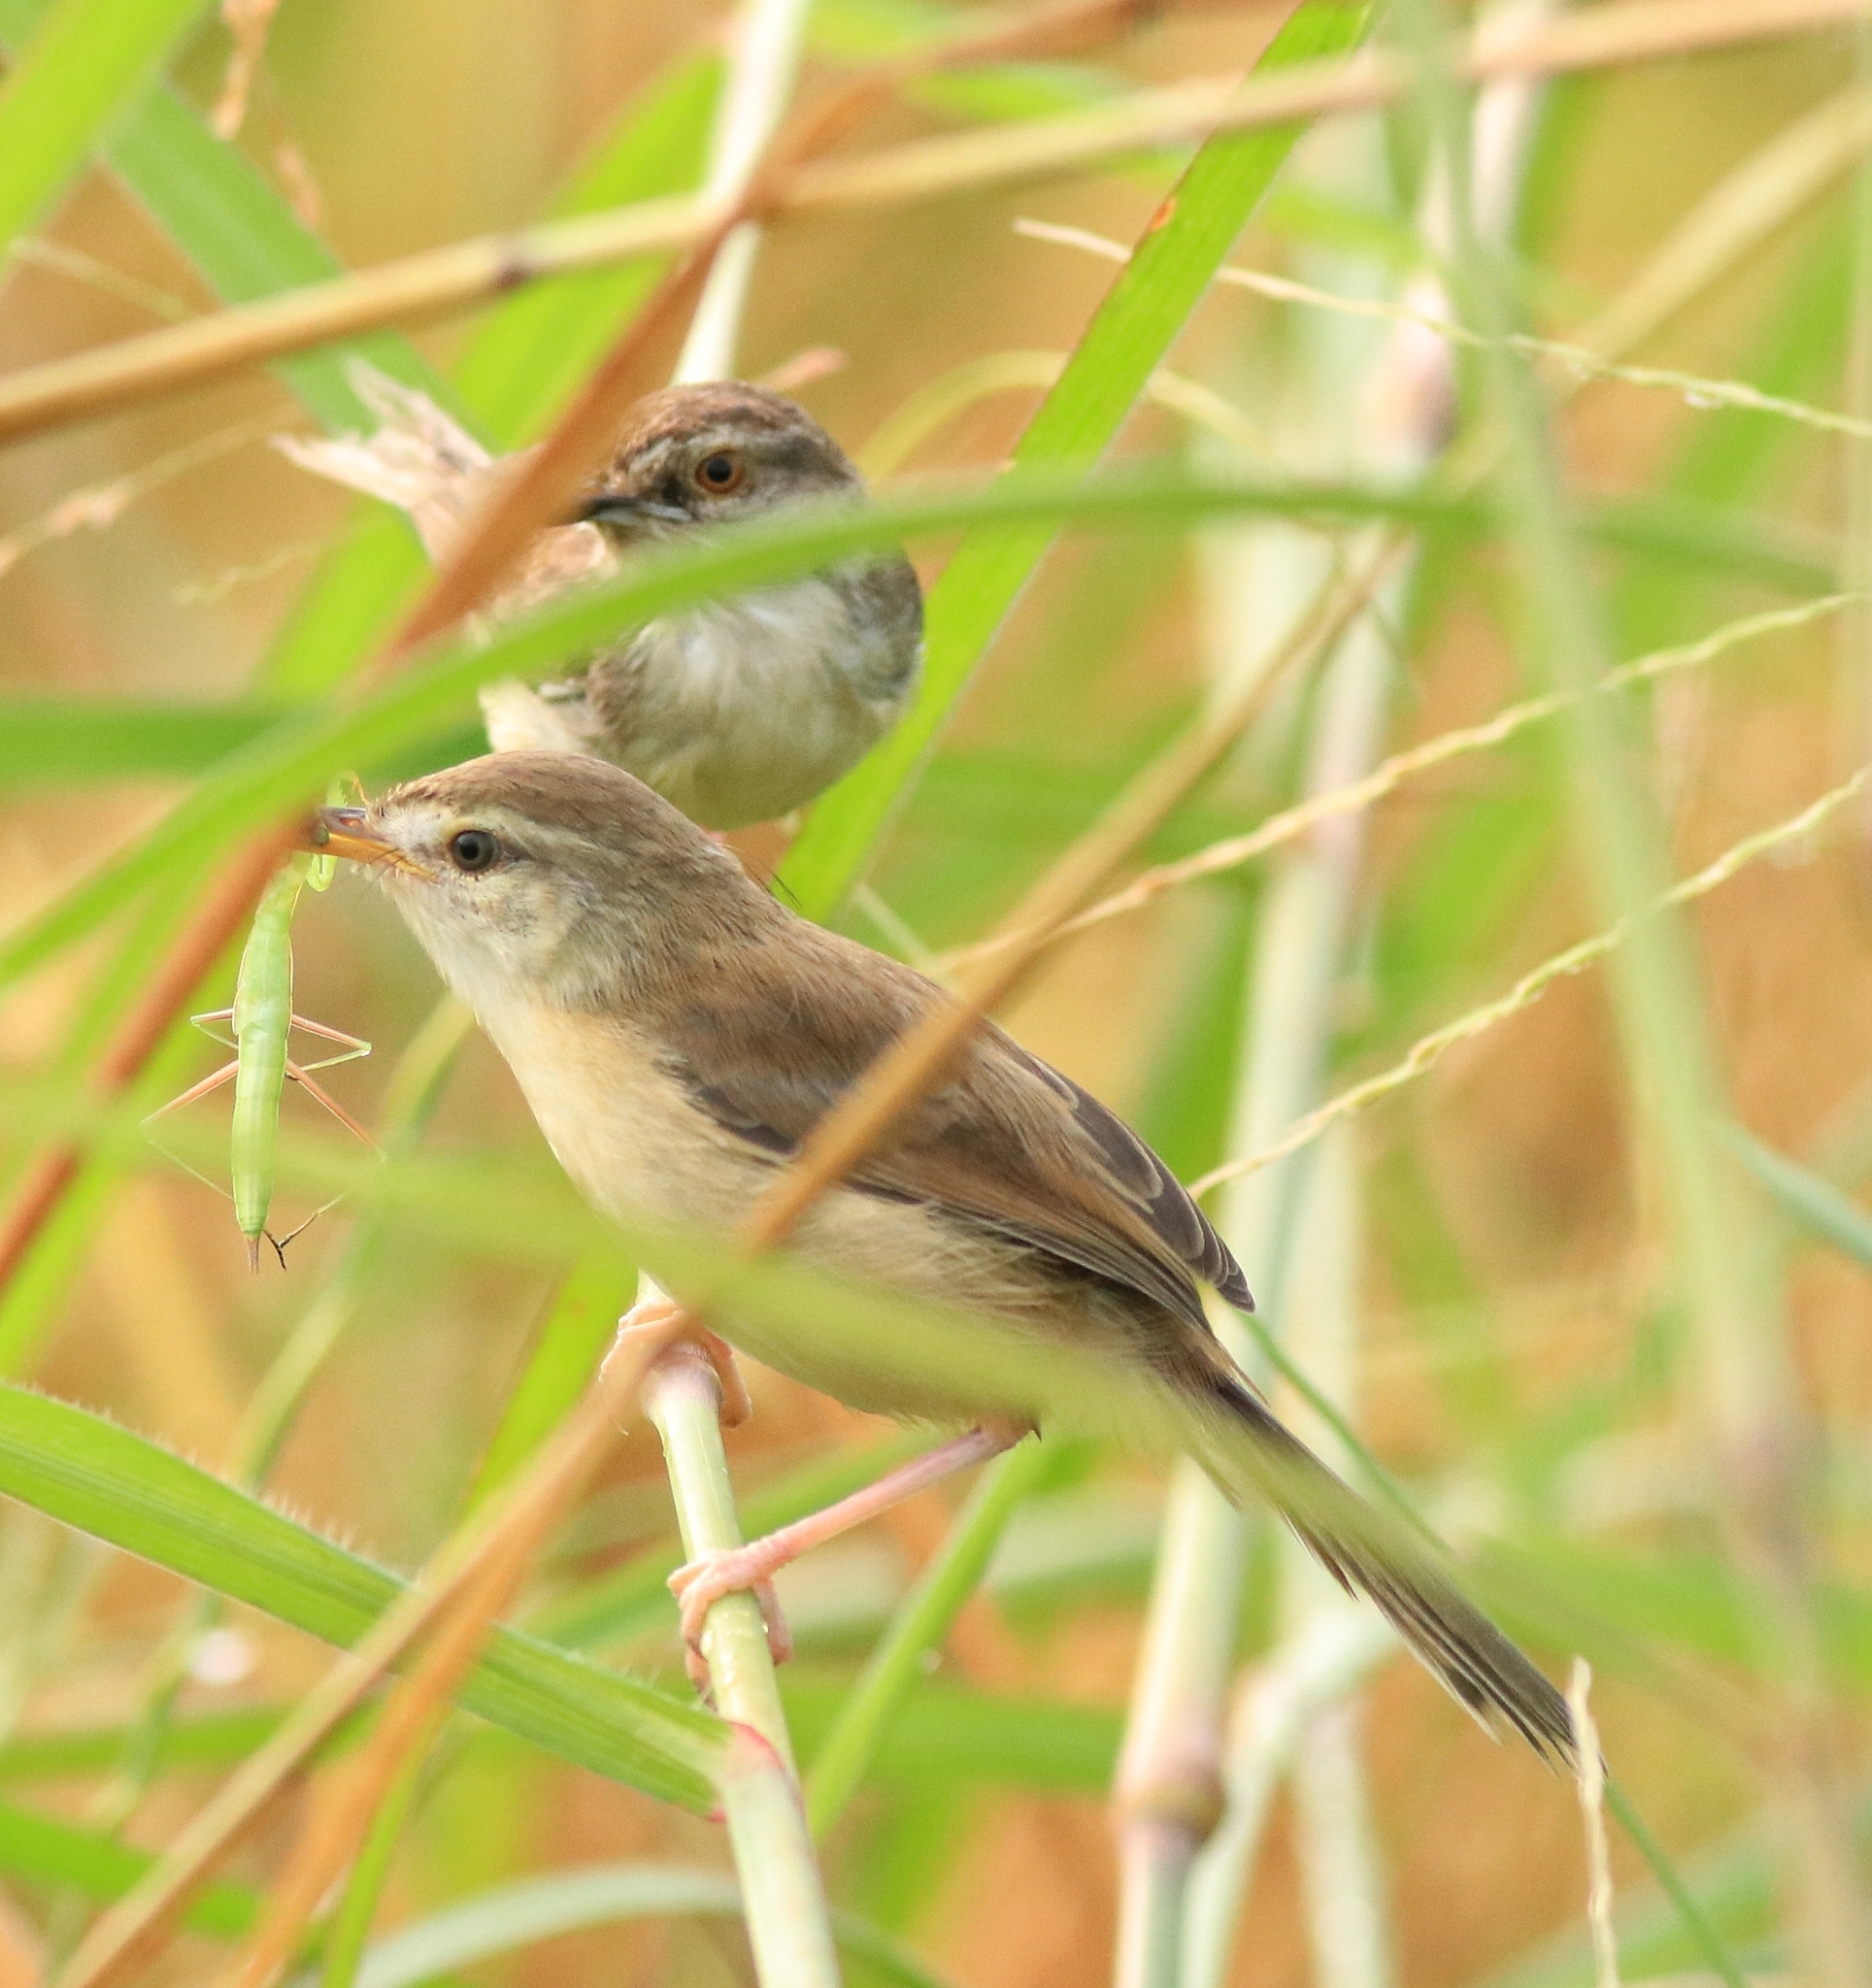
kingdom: Animalia
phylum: Chordata
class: Aves
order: Passeriformes
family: Cisticolidae
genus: Prinia
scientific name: Prinia inornata
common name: Plain prinia
